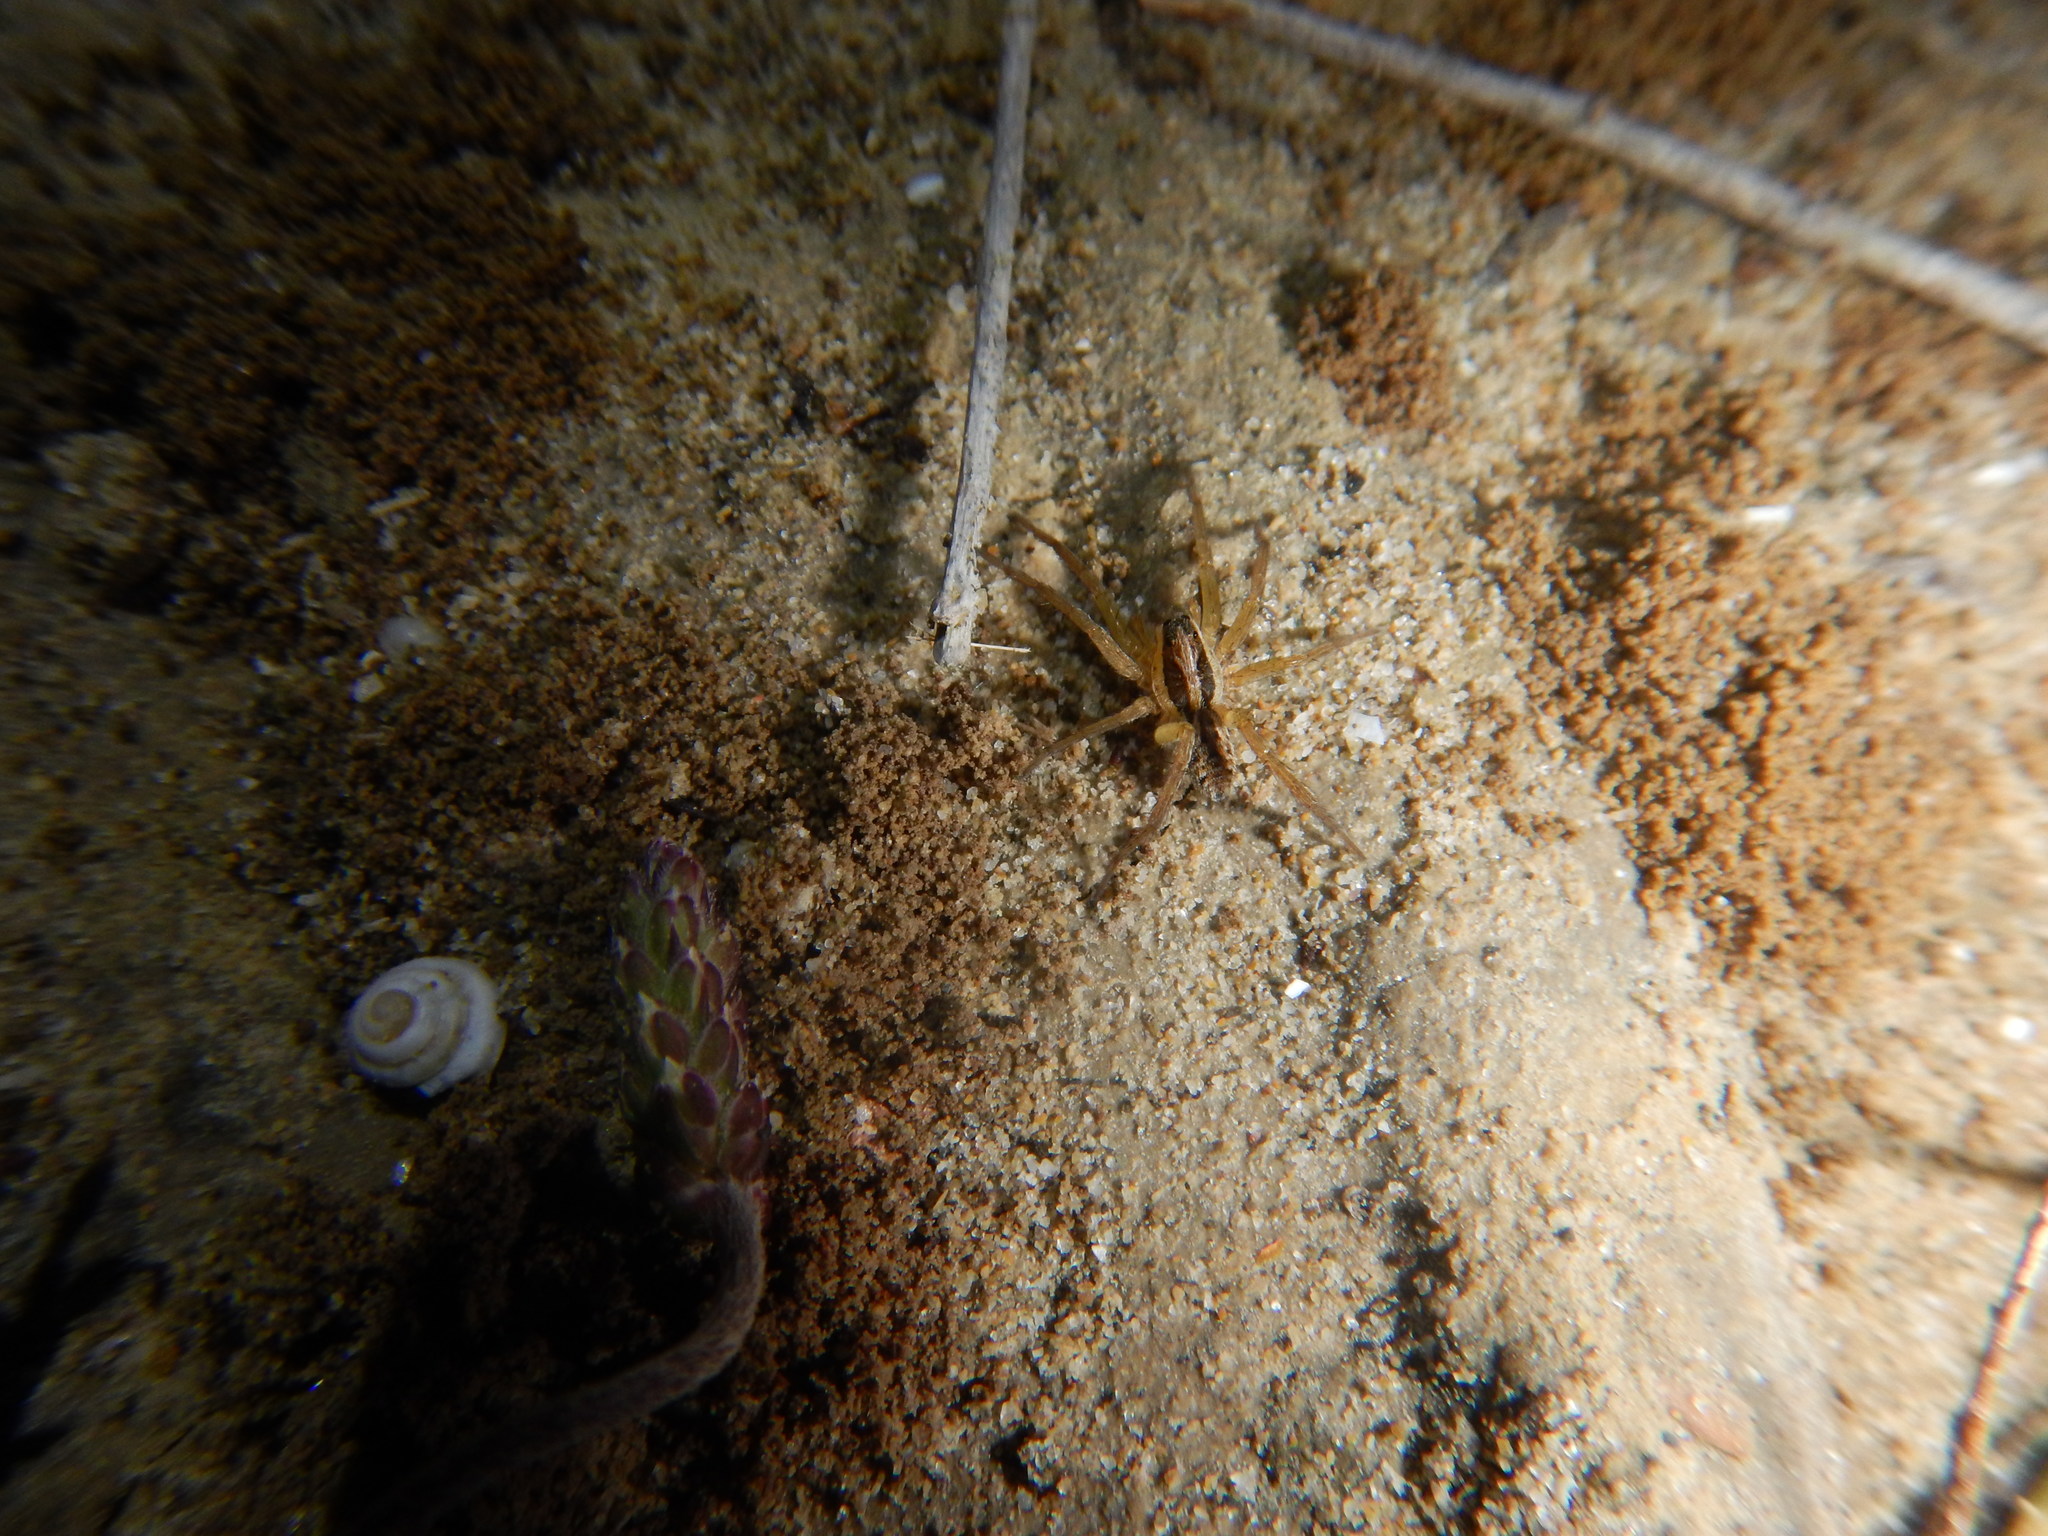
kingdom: Animalia
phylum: Arthropoda
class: Arachnida
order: Araneae
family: Lycosidae
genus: Hogna
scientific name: Hogna radiata
